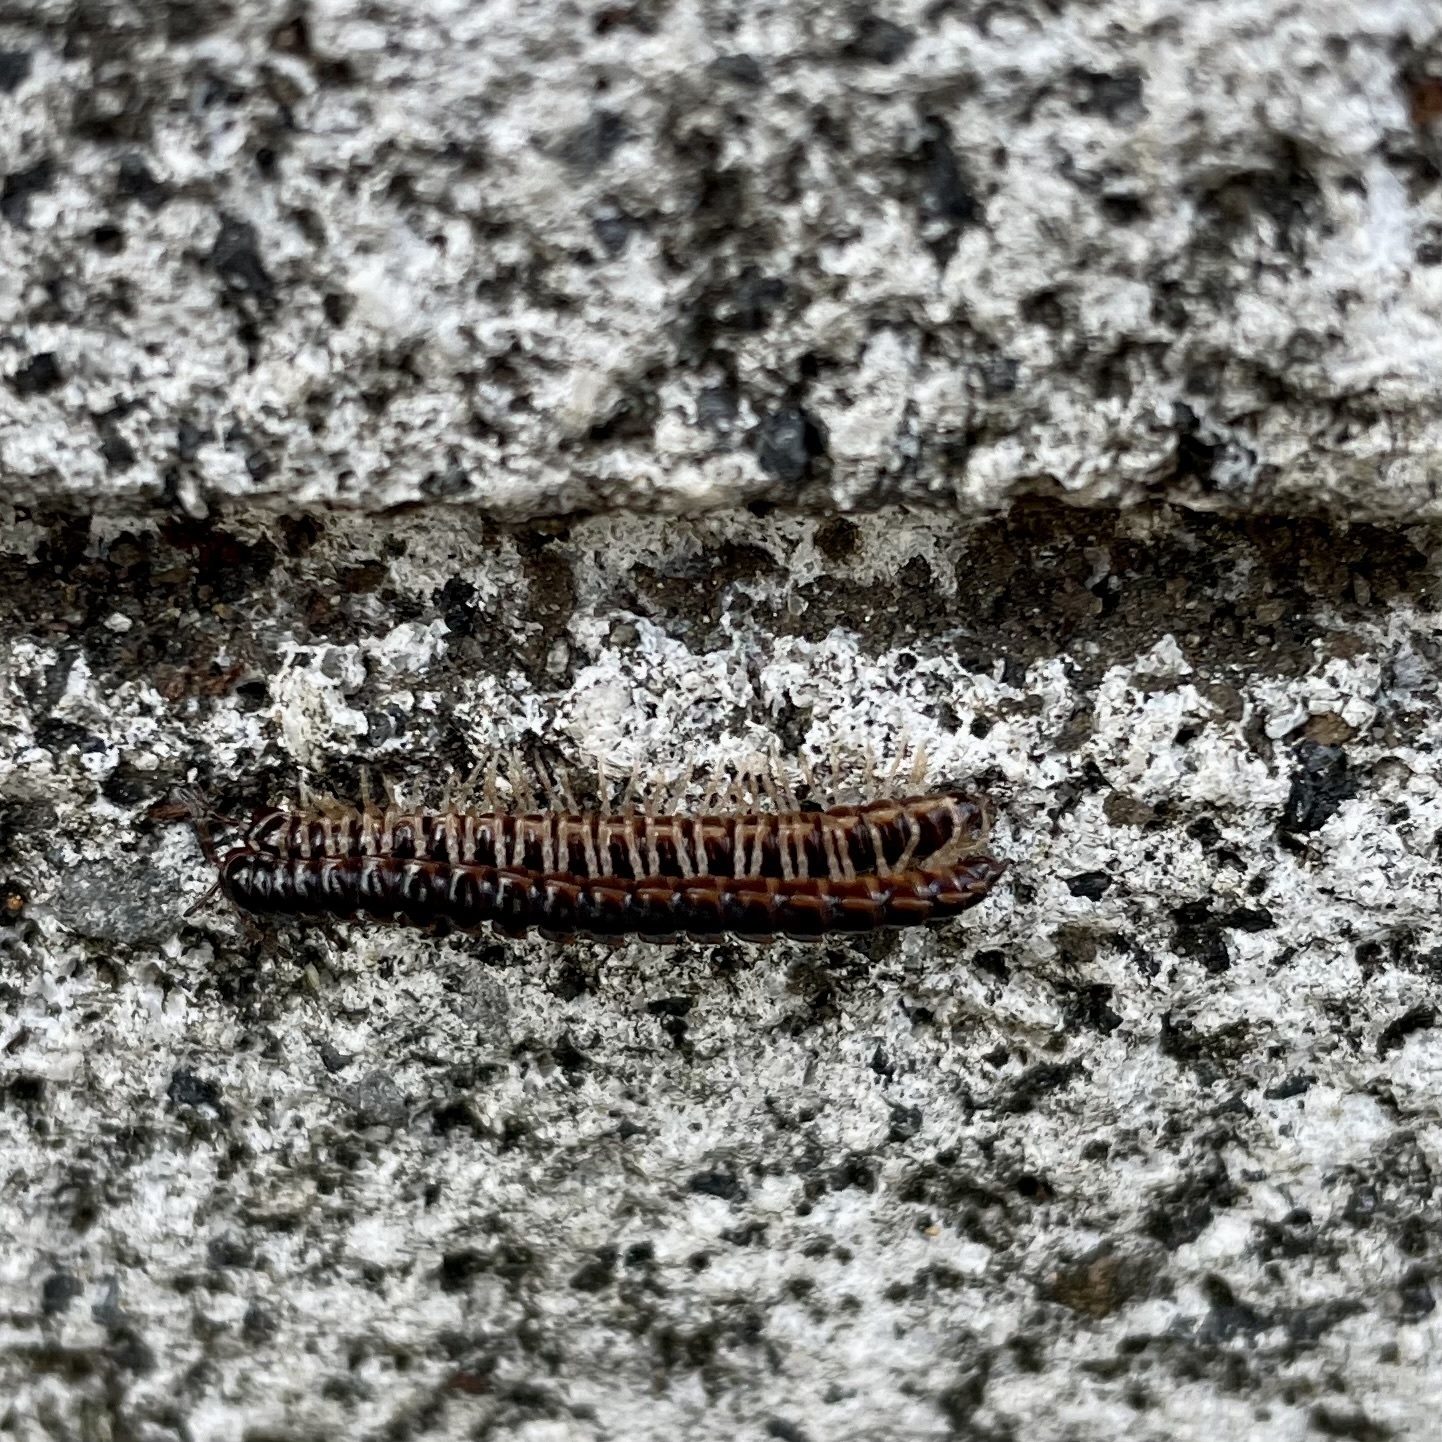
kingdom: Animalia
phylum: Arthropoda
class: Diplopoda
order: Polydesmida
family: Paradoxosomatidae
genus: Oxidus
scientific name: Oxidus gracilis
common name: Greenhouse millipede
